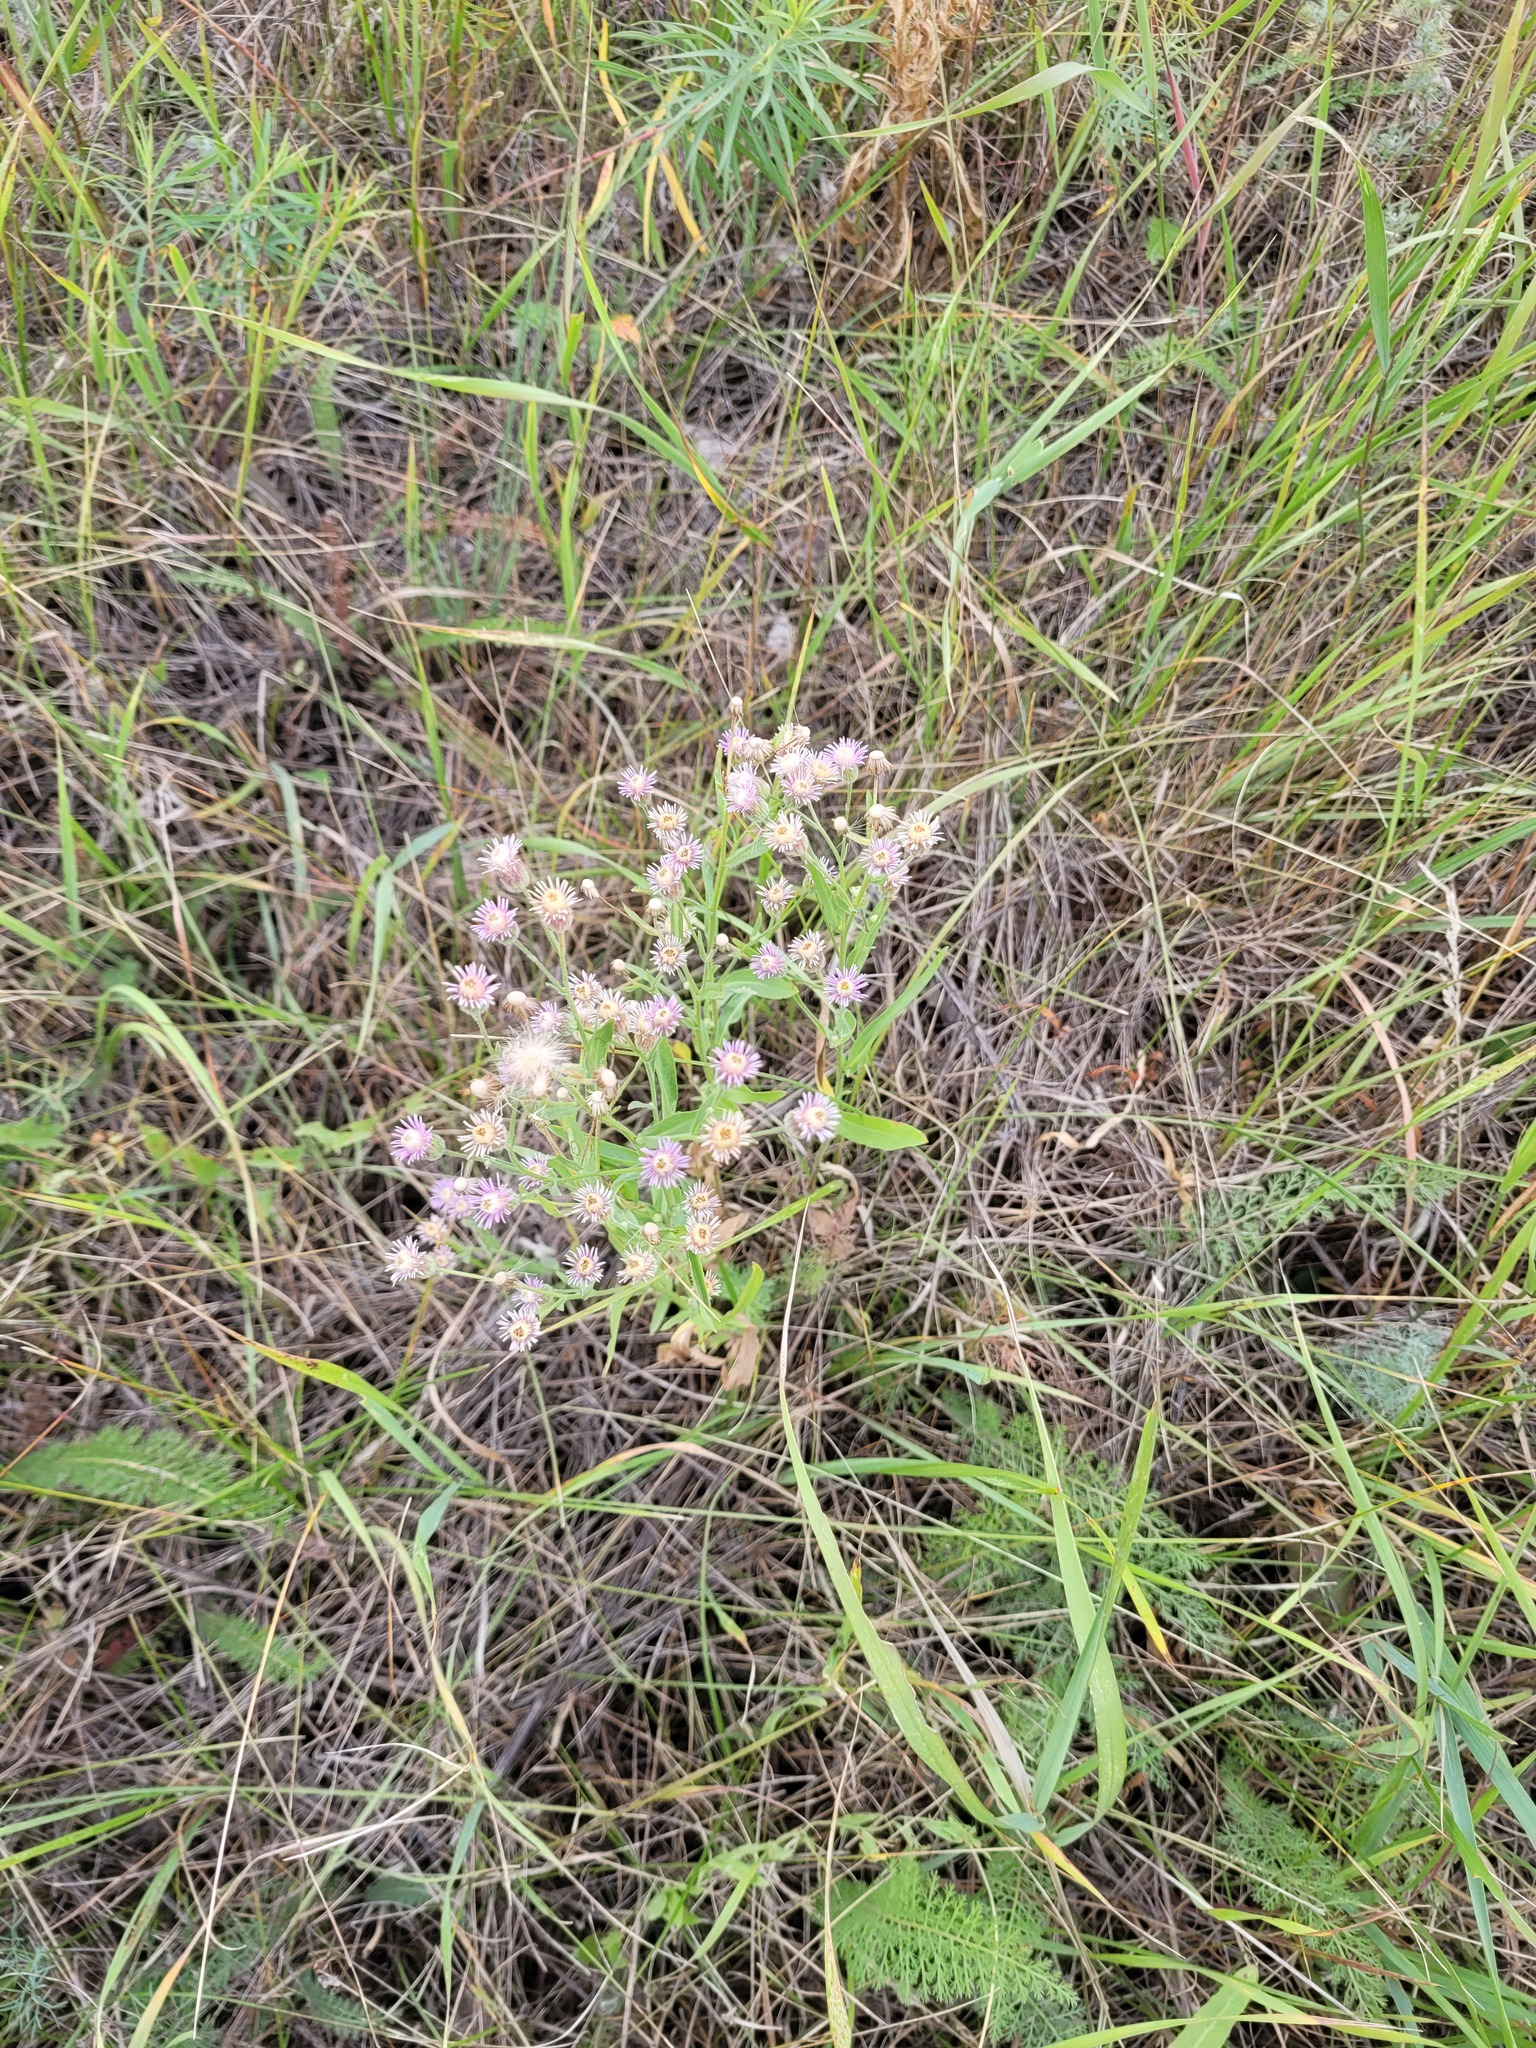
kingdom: Plantae
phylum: Tracheophyta
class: Magnoliopsida
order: Asterales
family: Asteraceae
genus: Erigeron
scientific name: Erigeron podolicus
